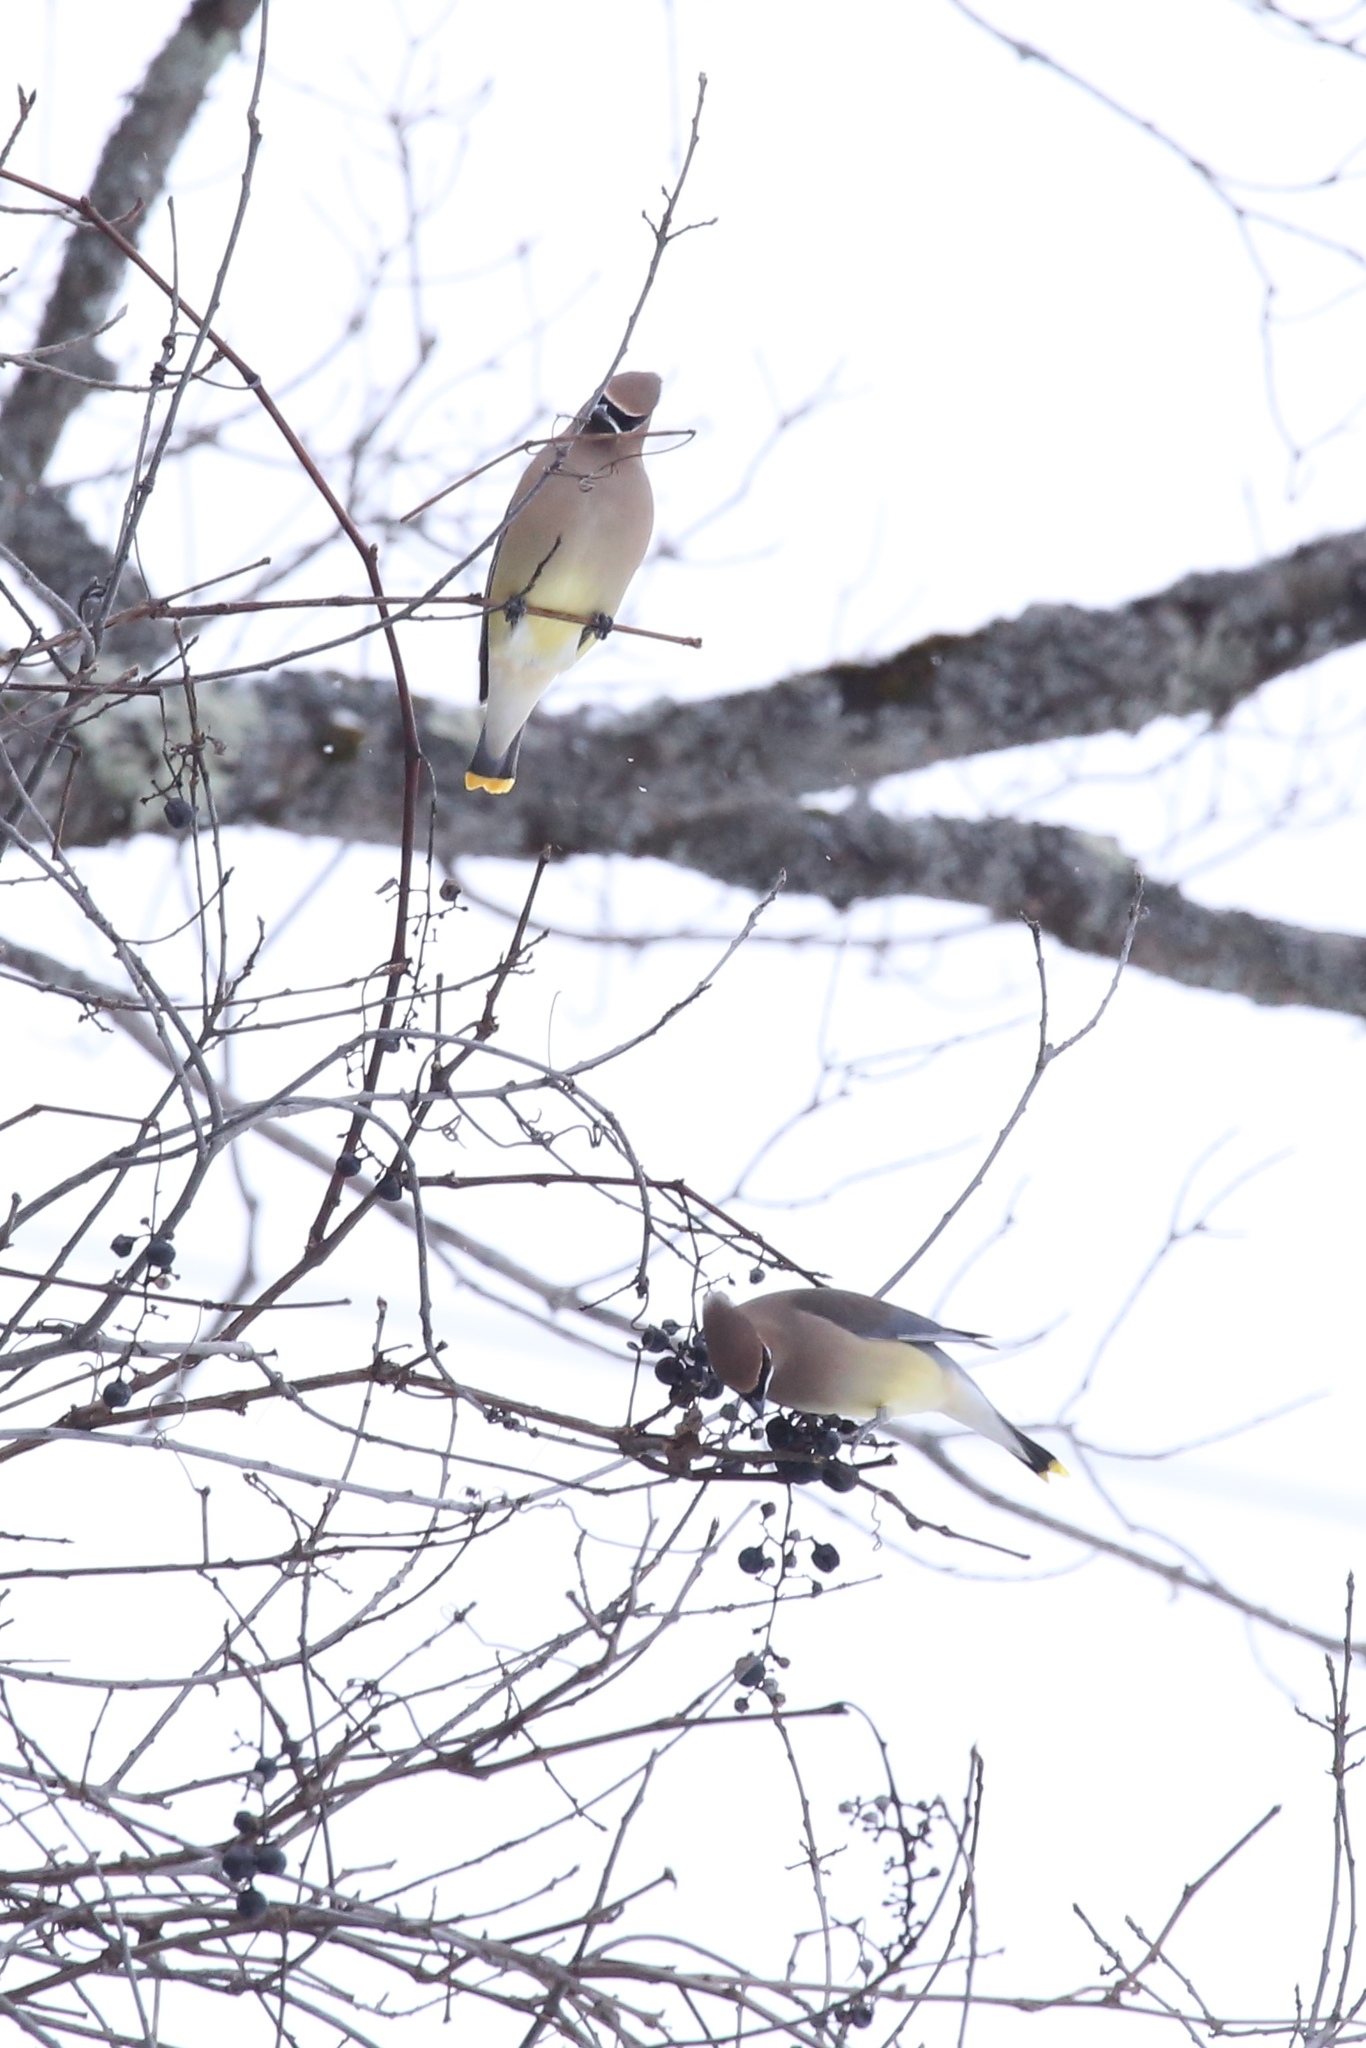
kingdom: Animalia
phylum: Chordata
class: Aves
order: Passeriformes
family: Bombycillidae
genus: Bombycilla
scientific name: Bombycilla cedrorum
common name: Cedar waxwing
